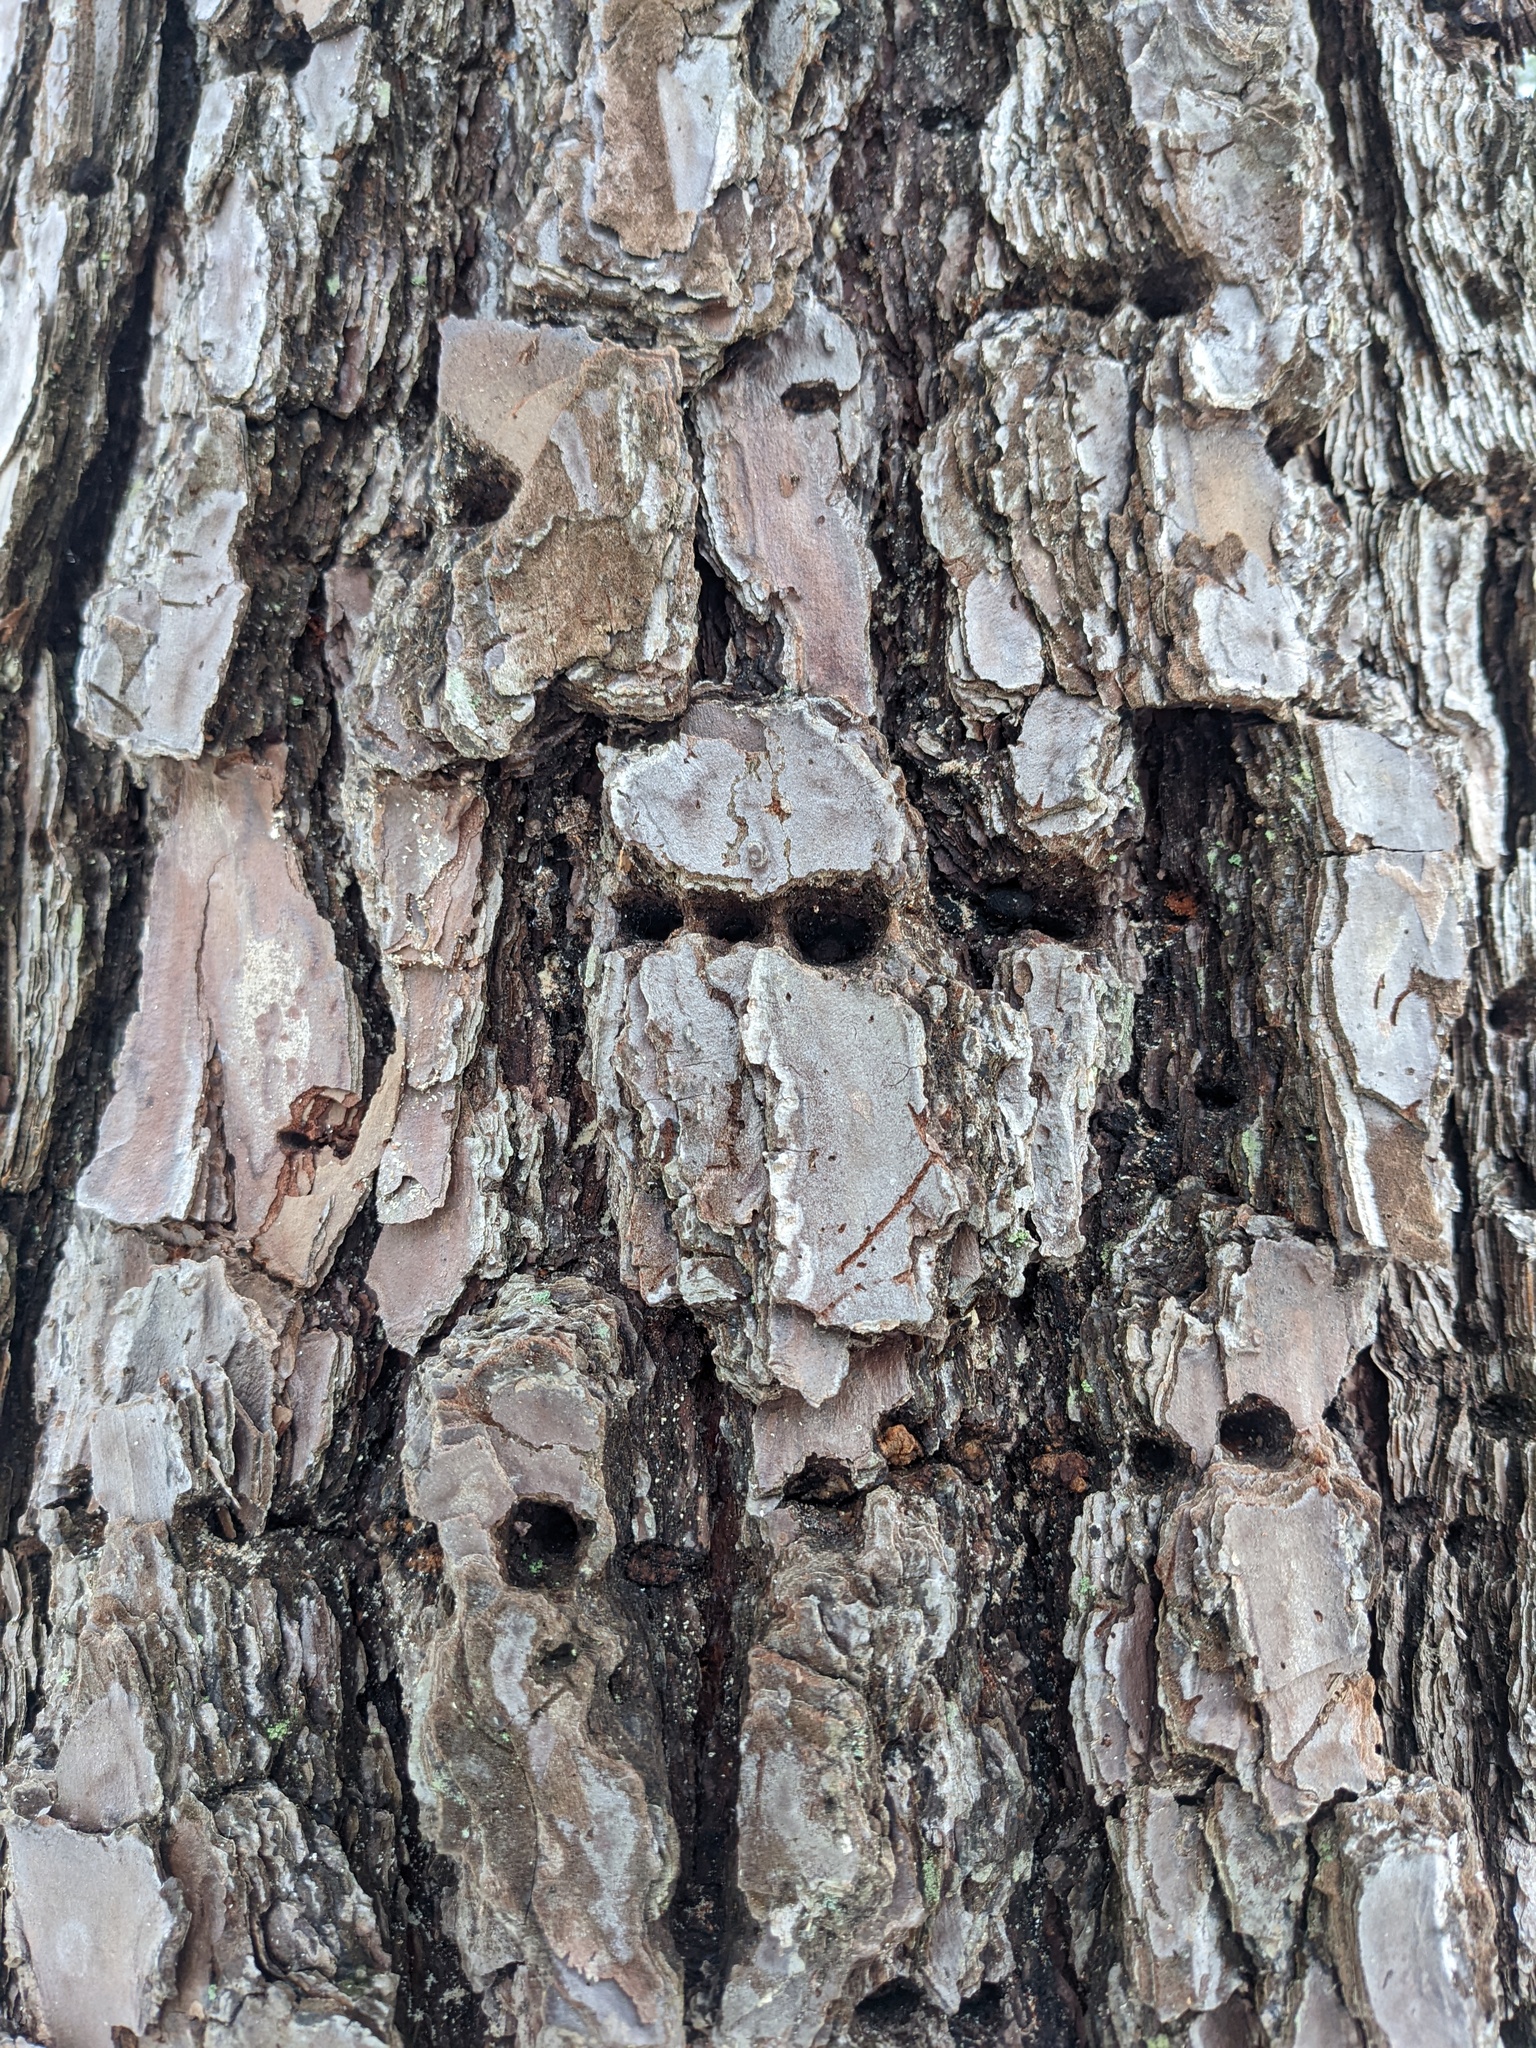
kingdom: Animalia
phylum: Chordata
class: Aves
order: Piciformes
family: Picidae
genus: Sphyrapicus
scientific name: Sphyrapicus varius
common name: Yellow-bellied sapsucker
